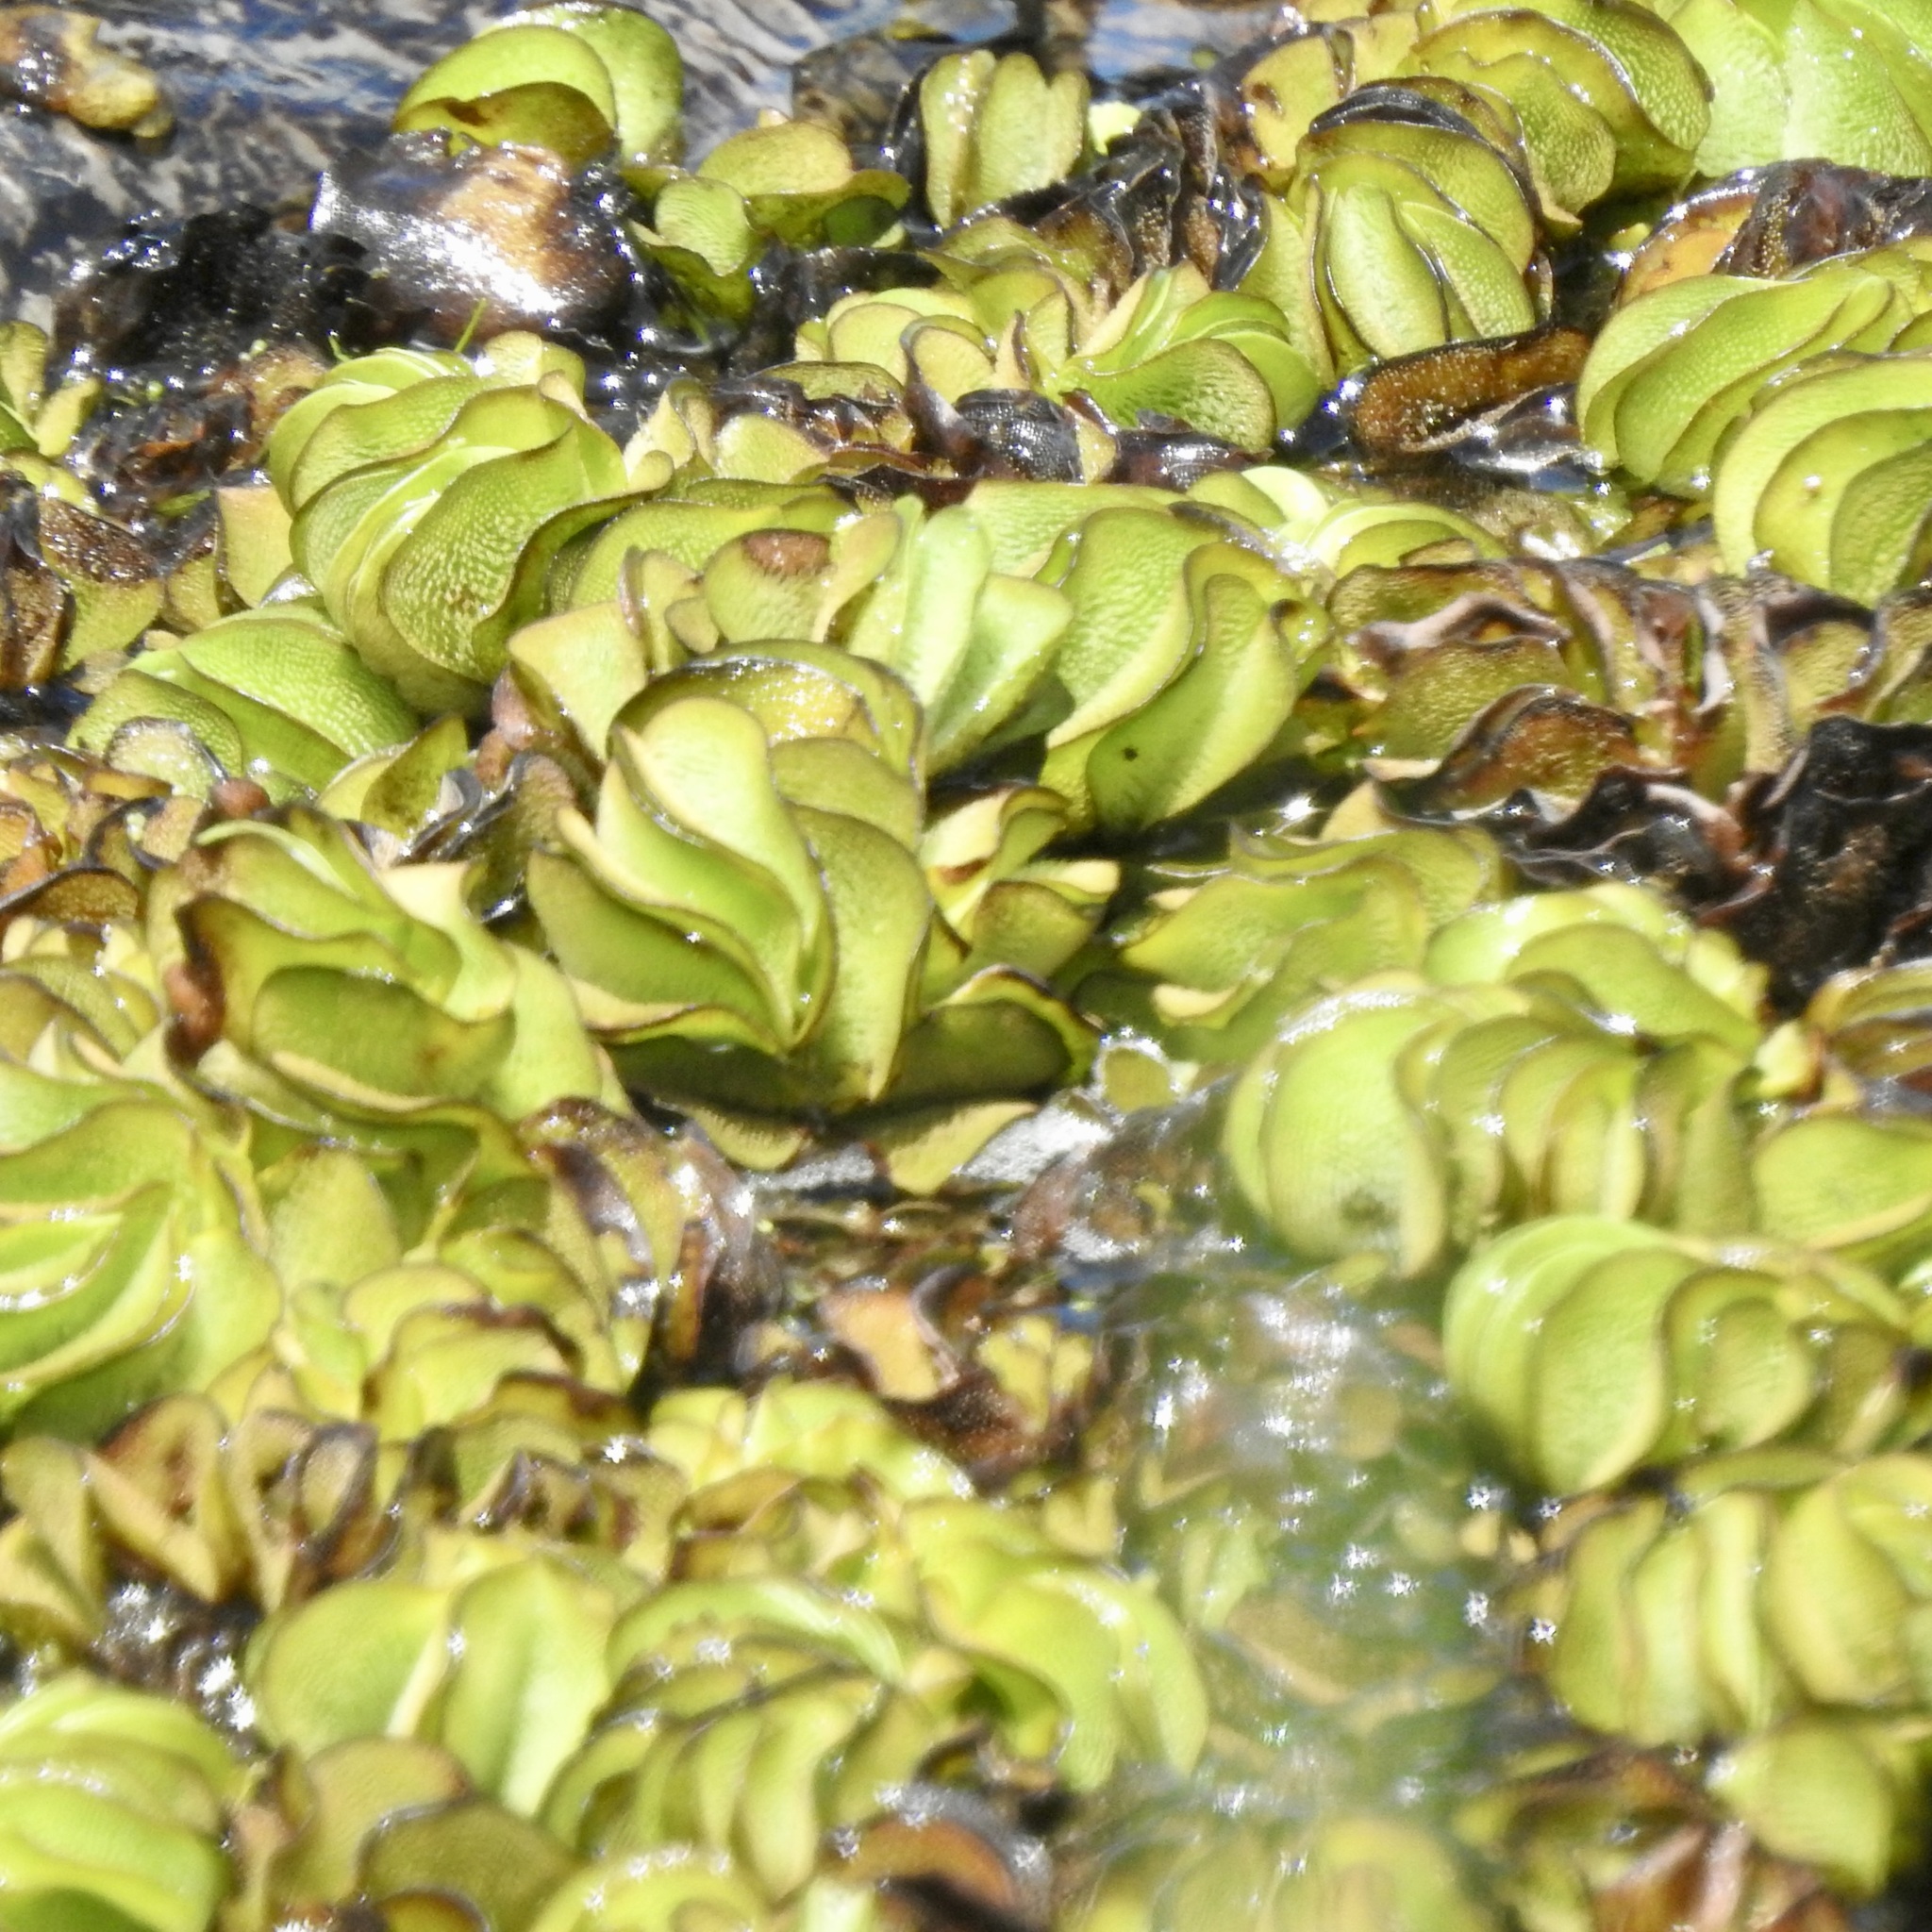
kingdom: Plantae
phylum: Tracheophyta
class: Polypodiopsida
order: Salviniales
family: Salviniaceae
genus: Salvinia
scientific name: Salvinia molesta
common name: Kariba weed
